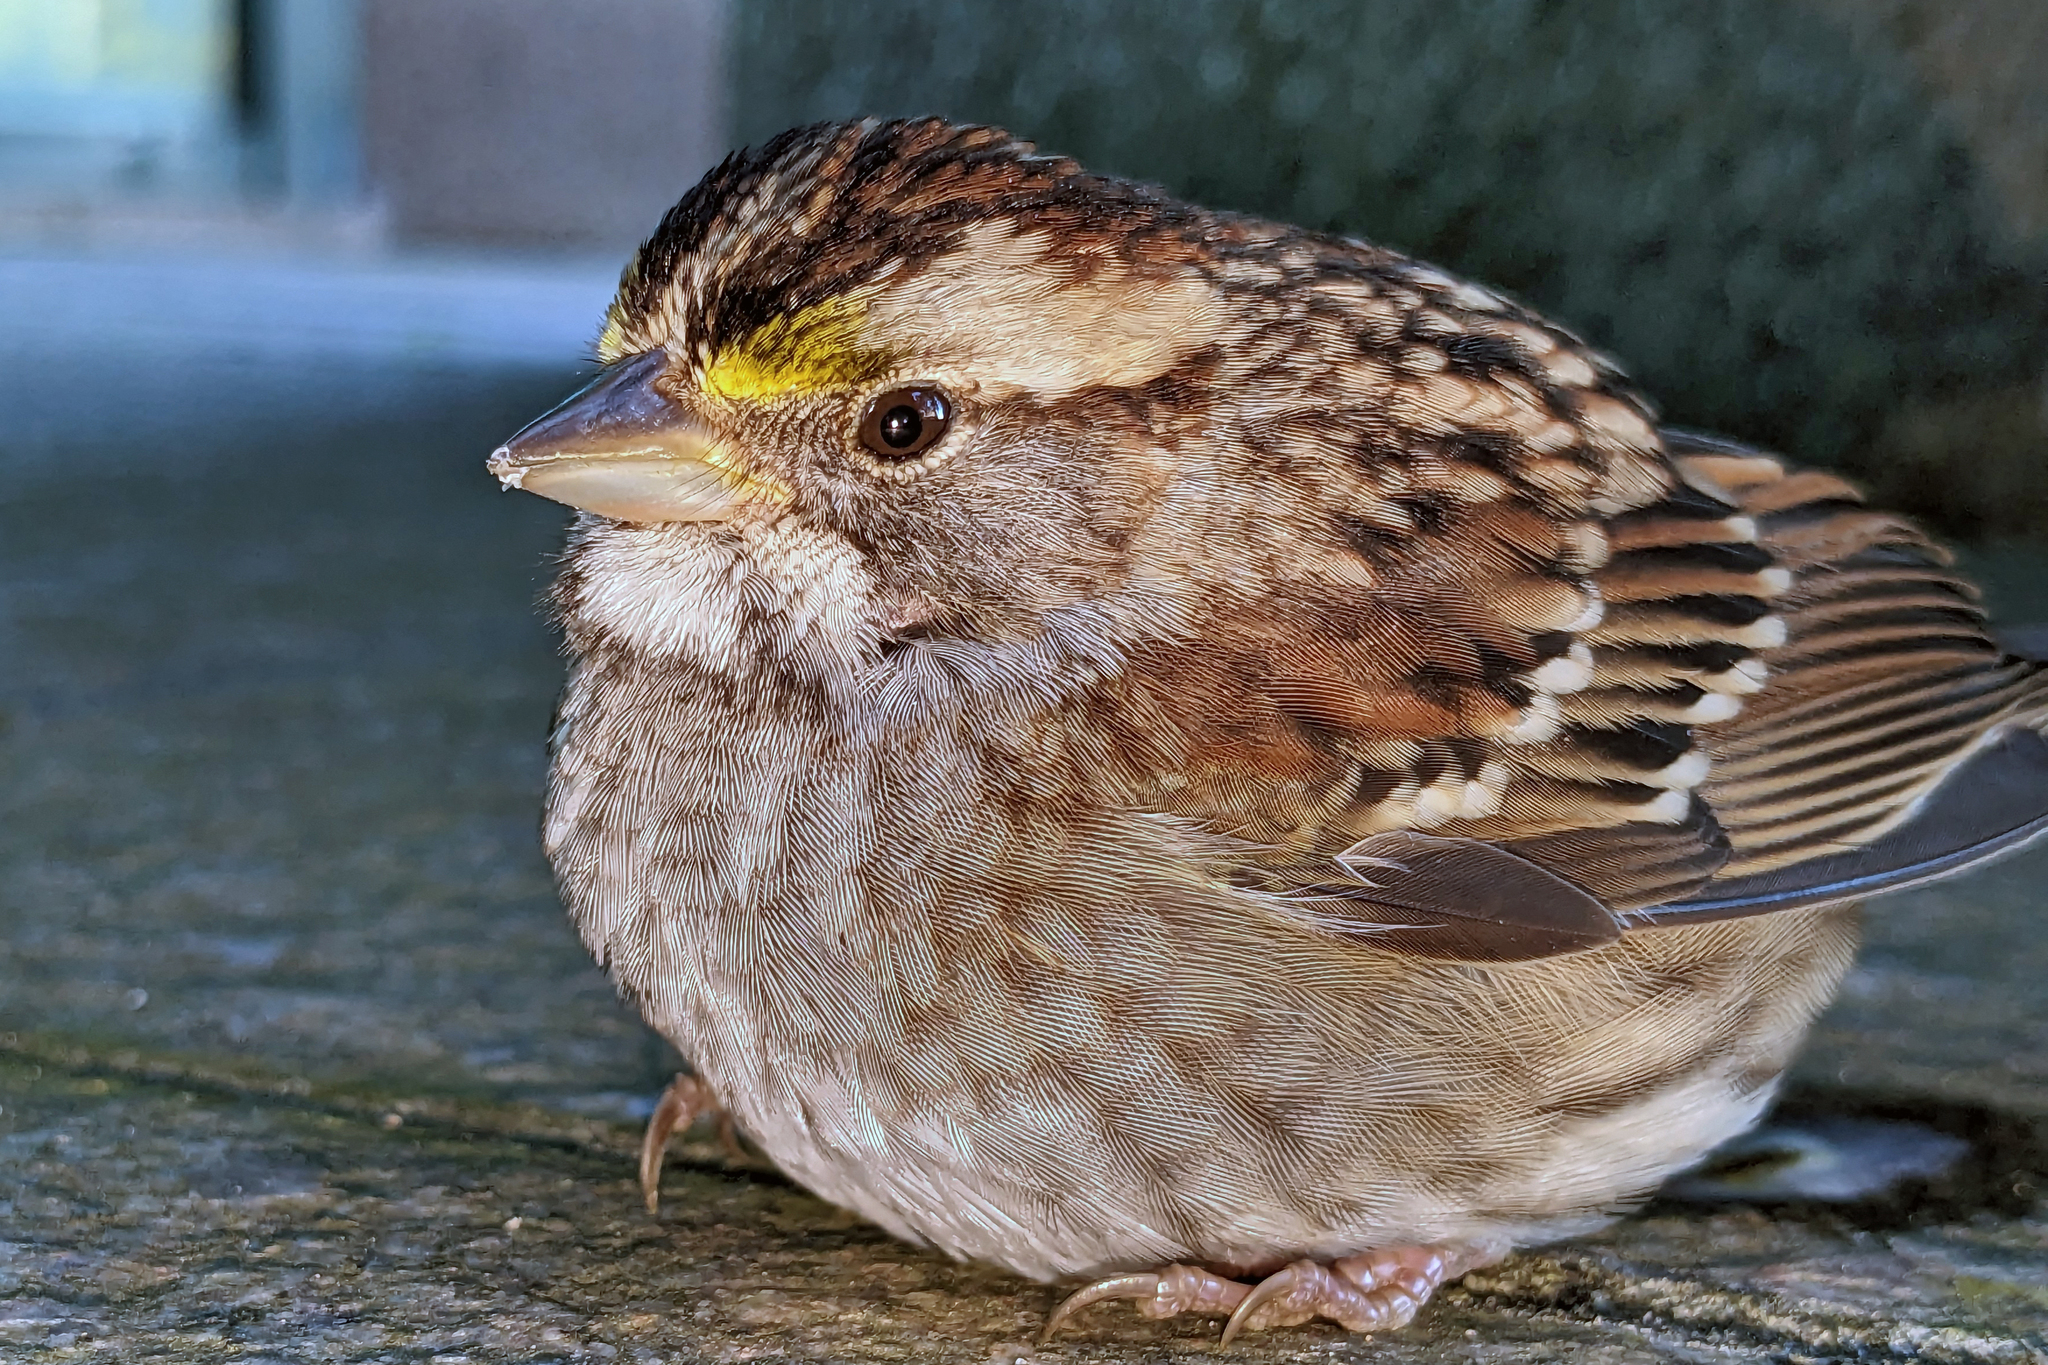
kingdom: Animalia
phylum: Chordata
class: Aves
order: Passeriformes
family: Passerellidae
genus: Zonotrichia
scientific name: Zonotrichia albicollis
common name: White-throated sparrow
